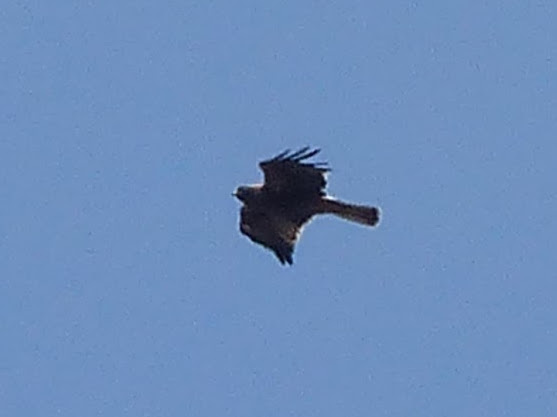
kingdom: Animalia
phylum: Chordata
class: Aves
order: Accipitriformes
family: Accipitridae
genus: Hieraaetus
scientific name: Hieraaetus pennatus
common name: Booted eagle
